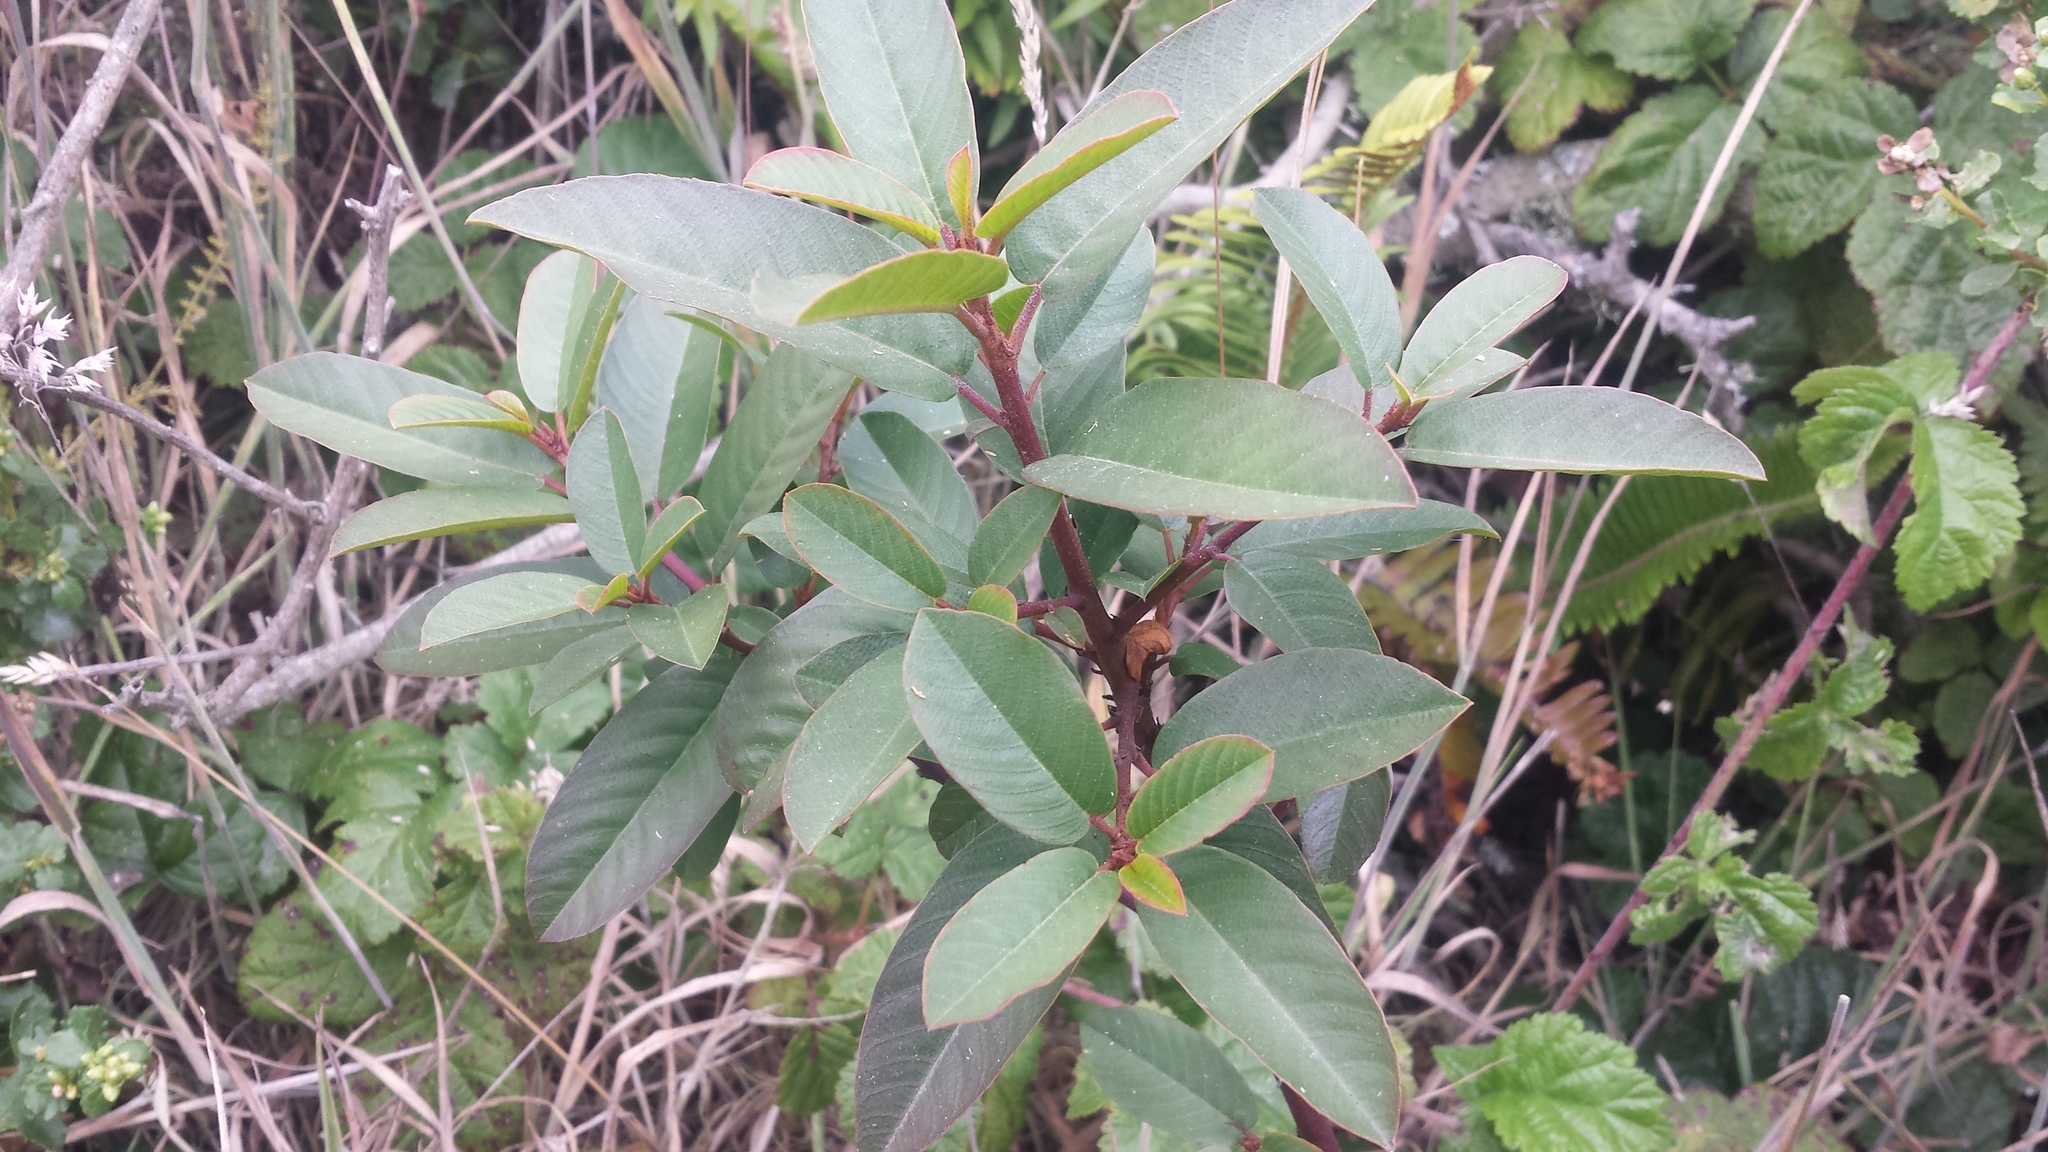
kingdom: Plantae
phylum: Tracheophyta
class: Magnoliopsida
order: Rosales
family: Rhamnaceae
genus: Frangula
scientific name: Frangula californica
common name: California buckthorn
